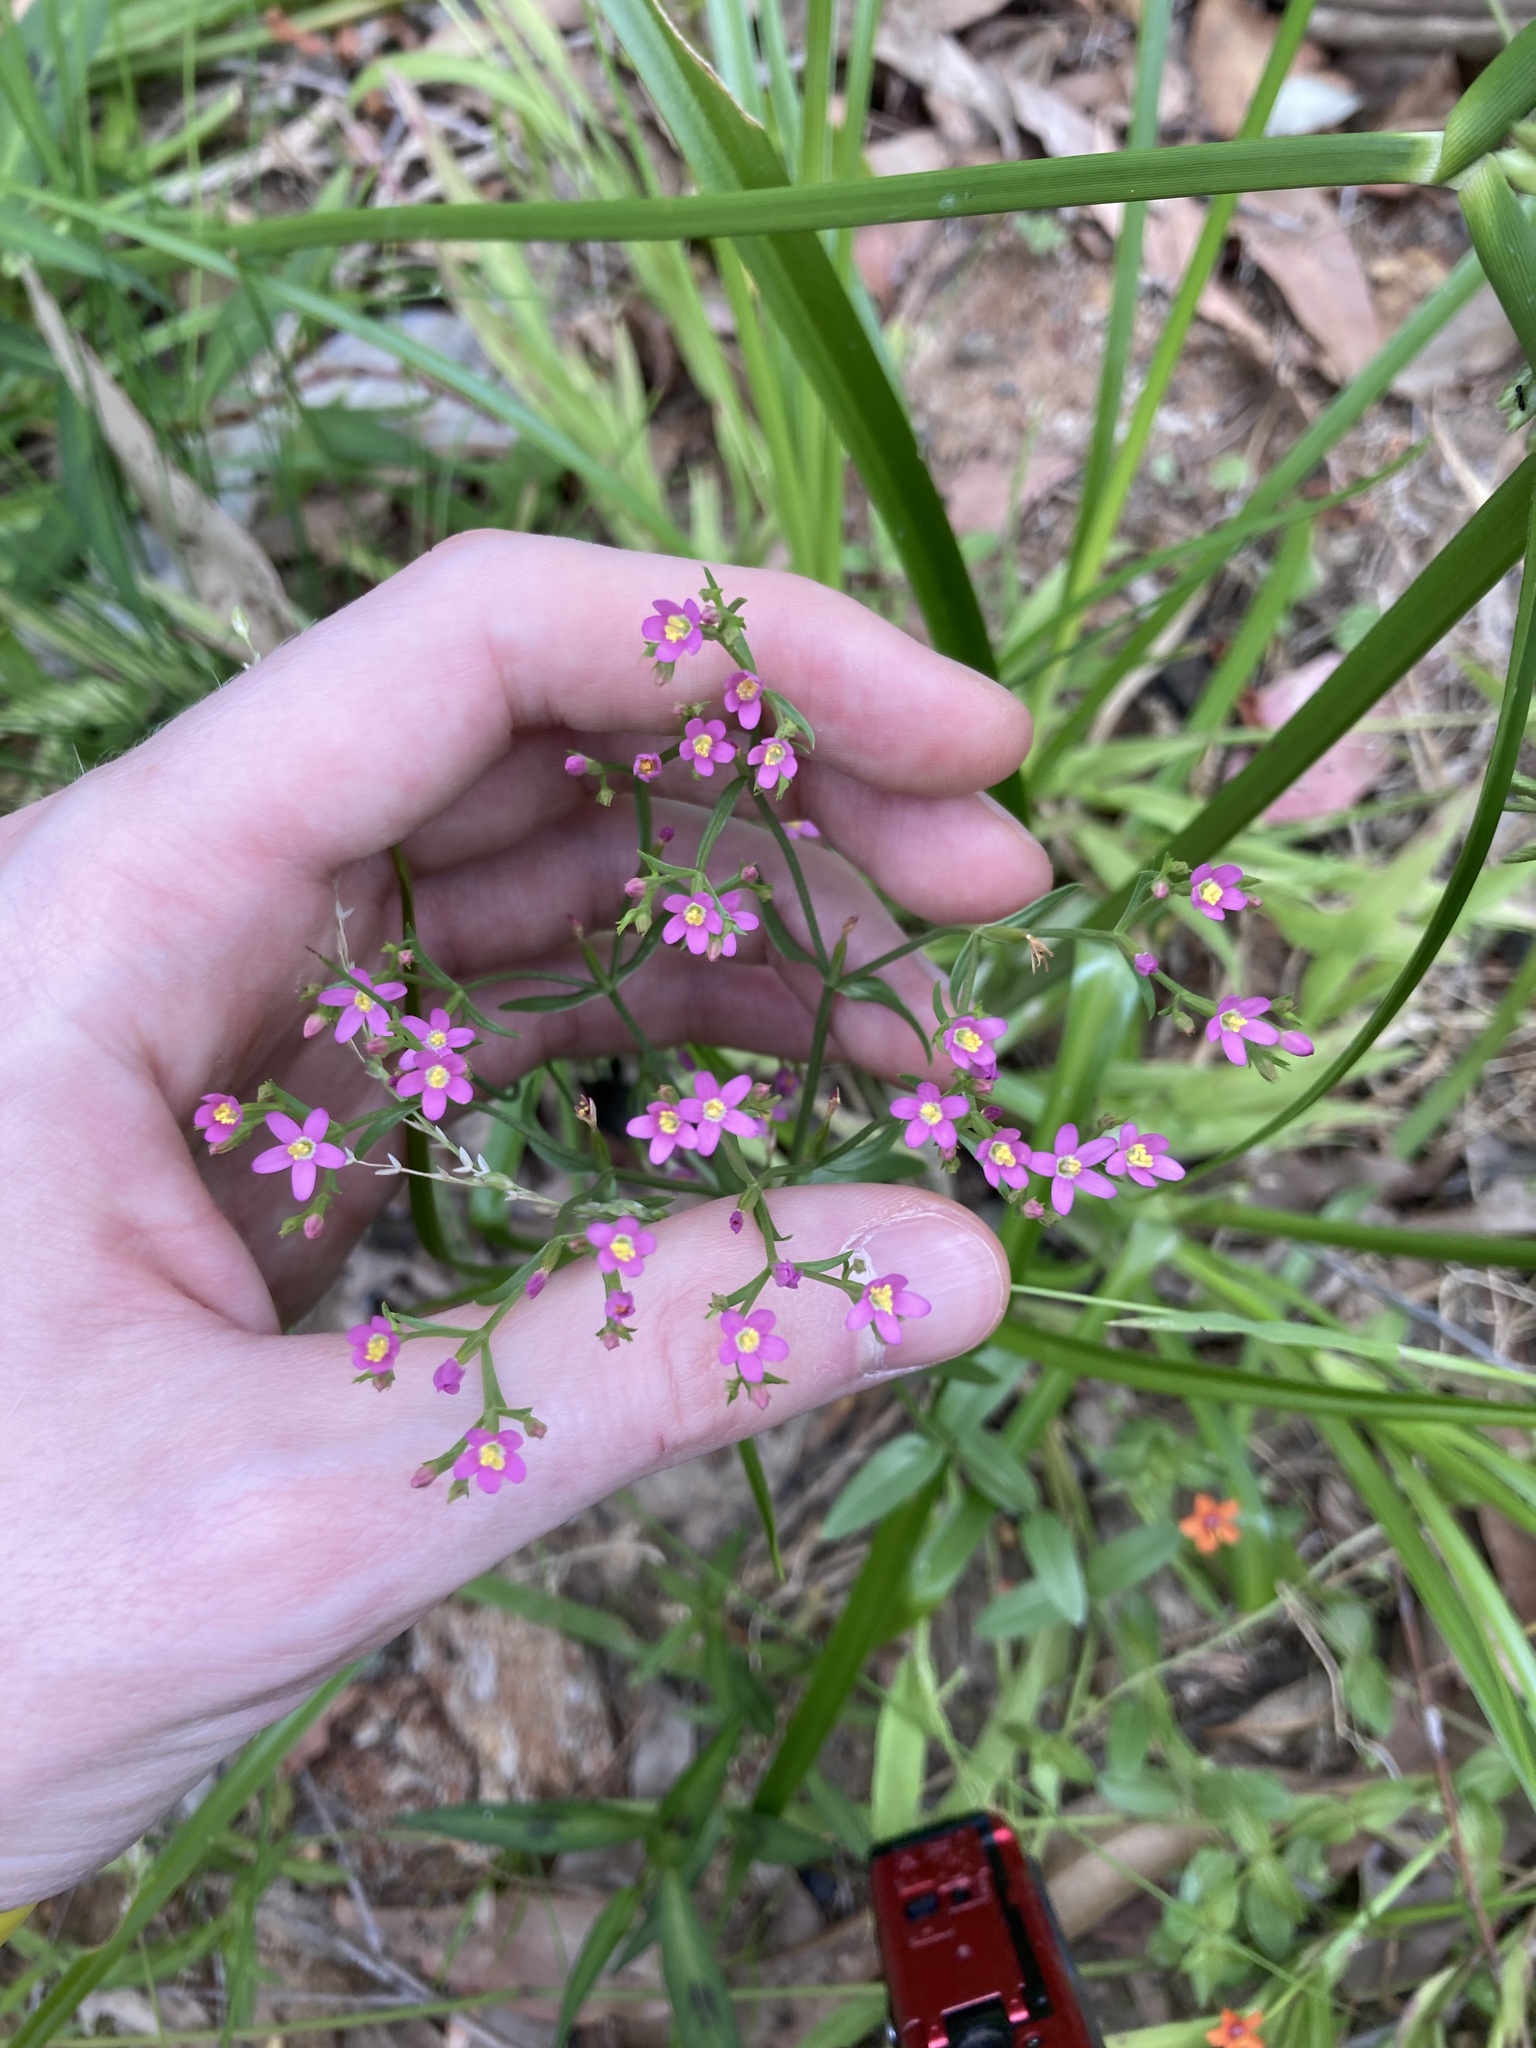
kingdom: Plantae
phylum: Tracheophyta
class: Magnoliopsida
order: Gentianales
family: Gentianaceae
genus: Centaurium
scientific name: Centaurium tenuiflorum
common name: Slender centaury
